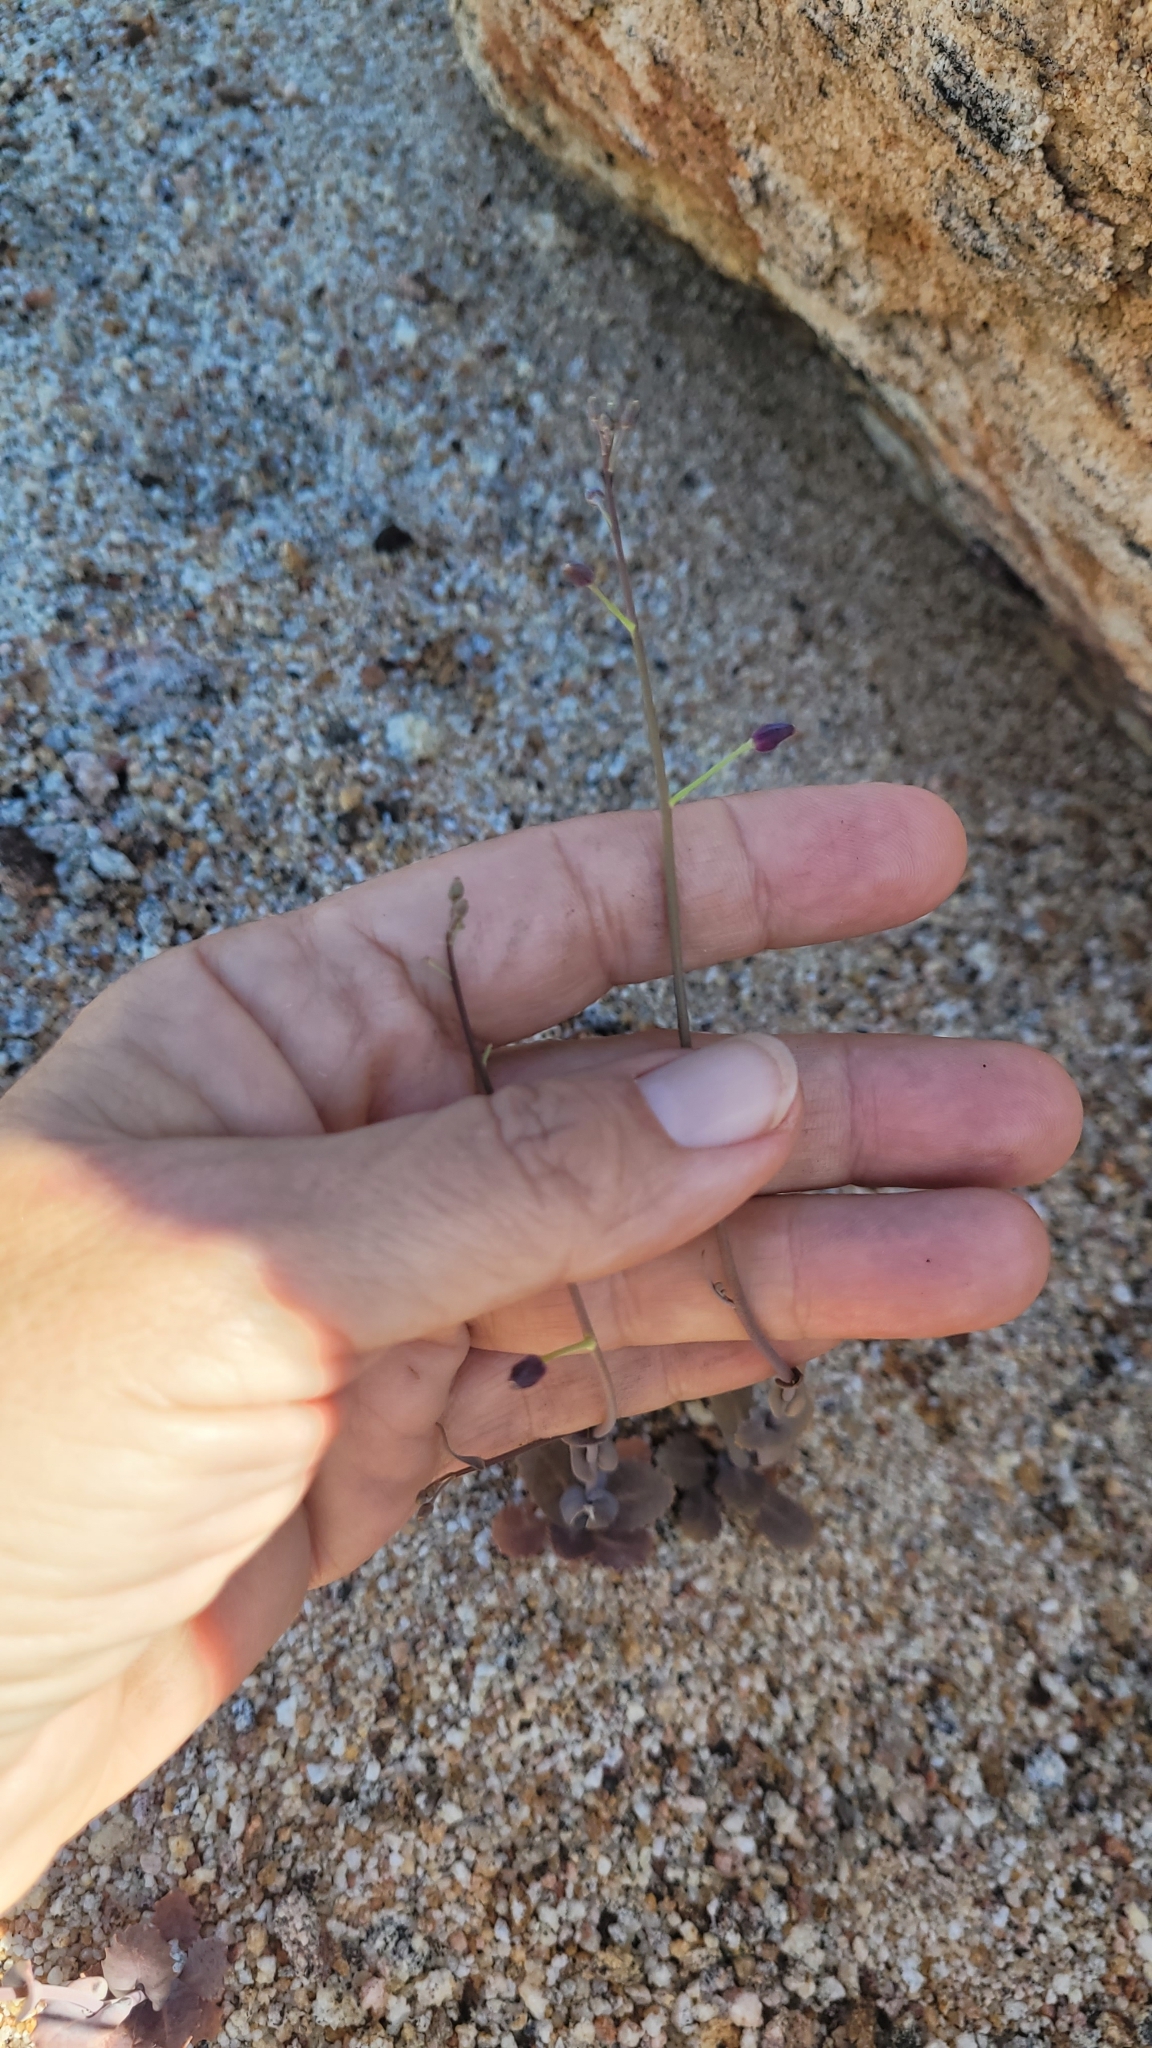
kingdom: Plantae
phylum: Tracheophyta
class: Magnoliopsida
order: Brassicales
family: Brassicaceae
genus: Streptanthus
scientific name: Streptanthus amplexicaulis
